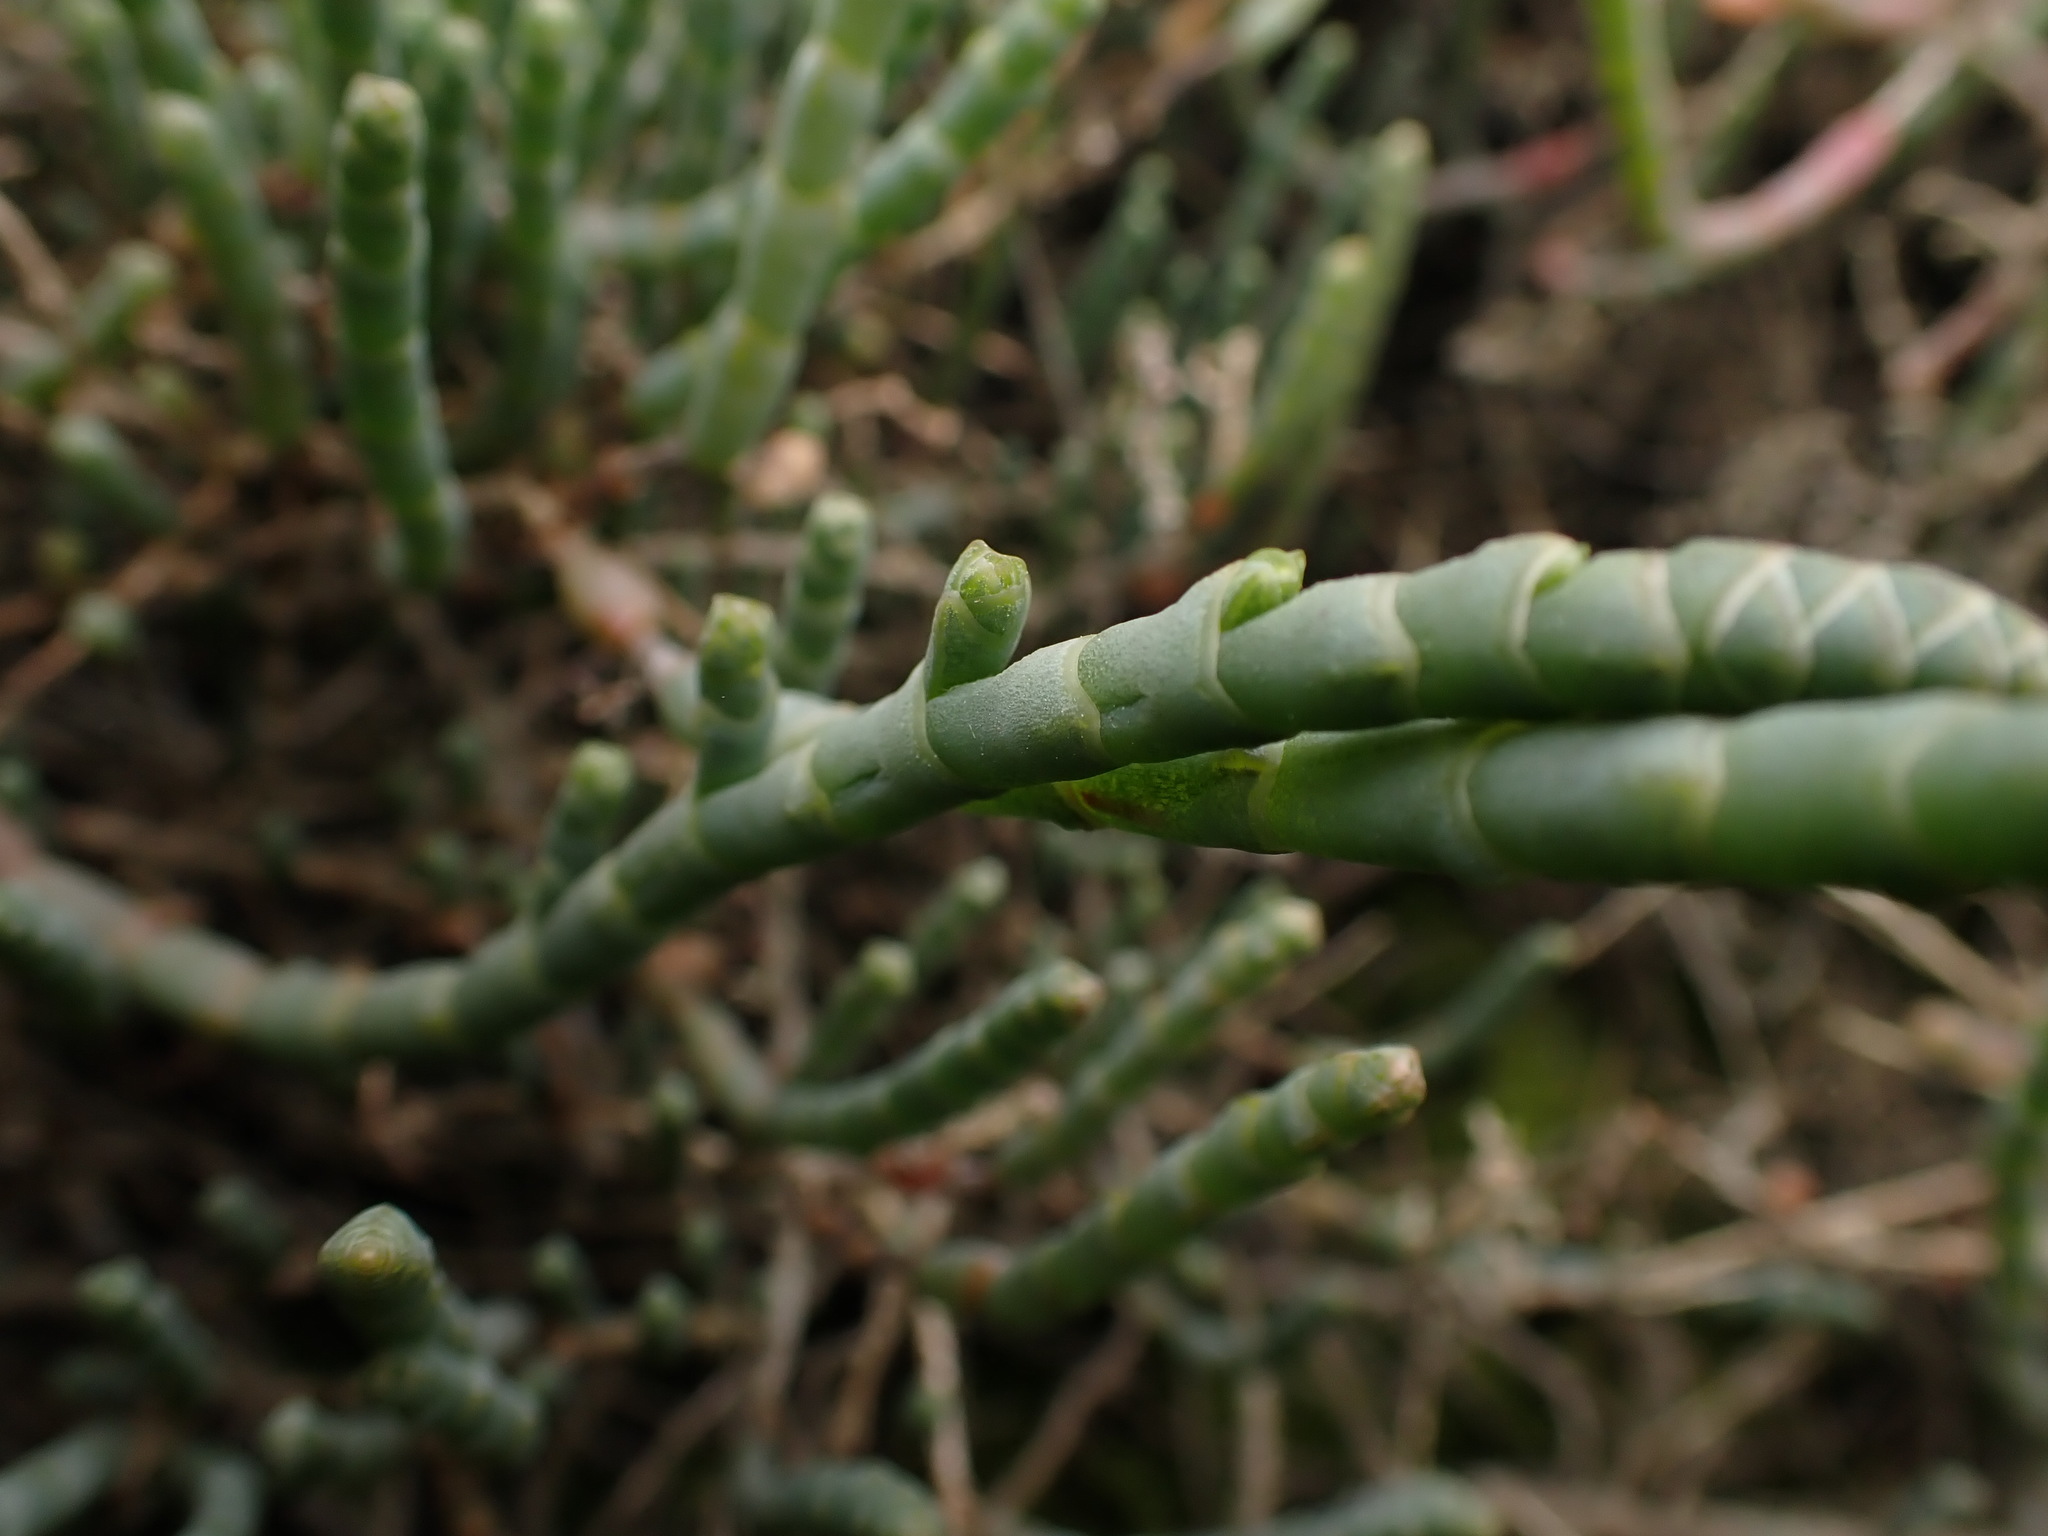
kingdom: Plantae
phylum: Tracheophyta
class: Magnoliopsida
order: Caryophyllales
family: Amaranthaceae
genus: Salicornia
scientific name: Salicornia quinqueflora
